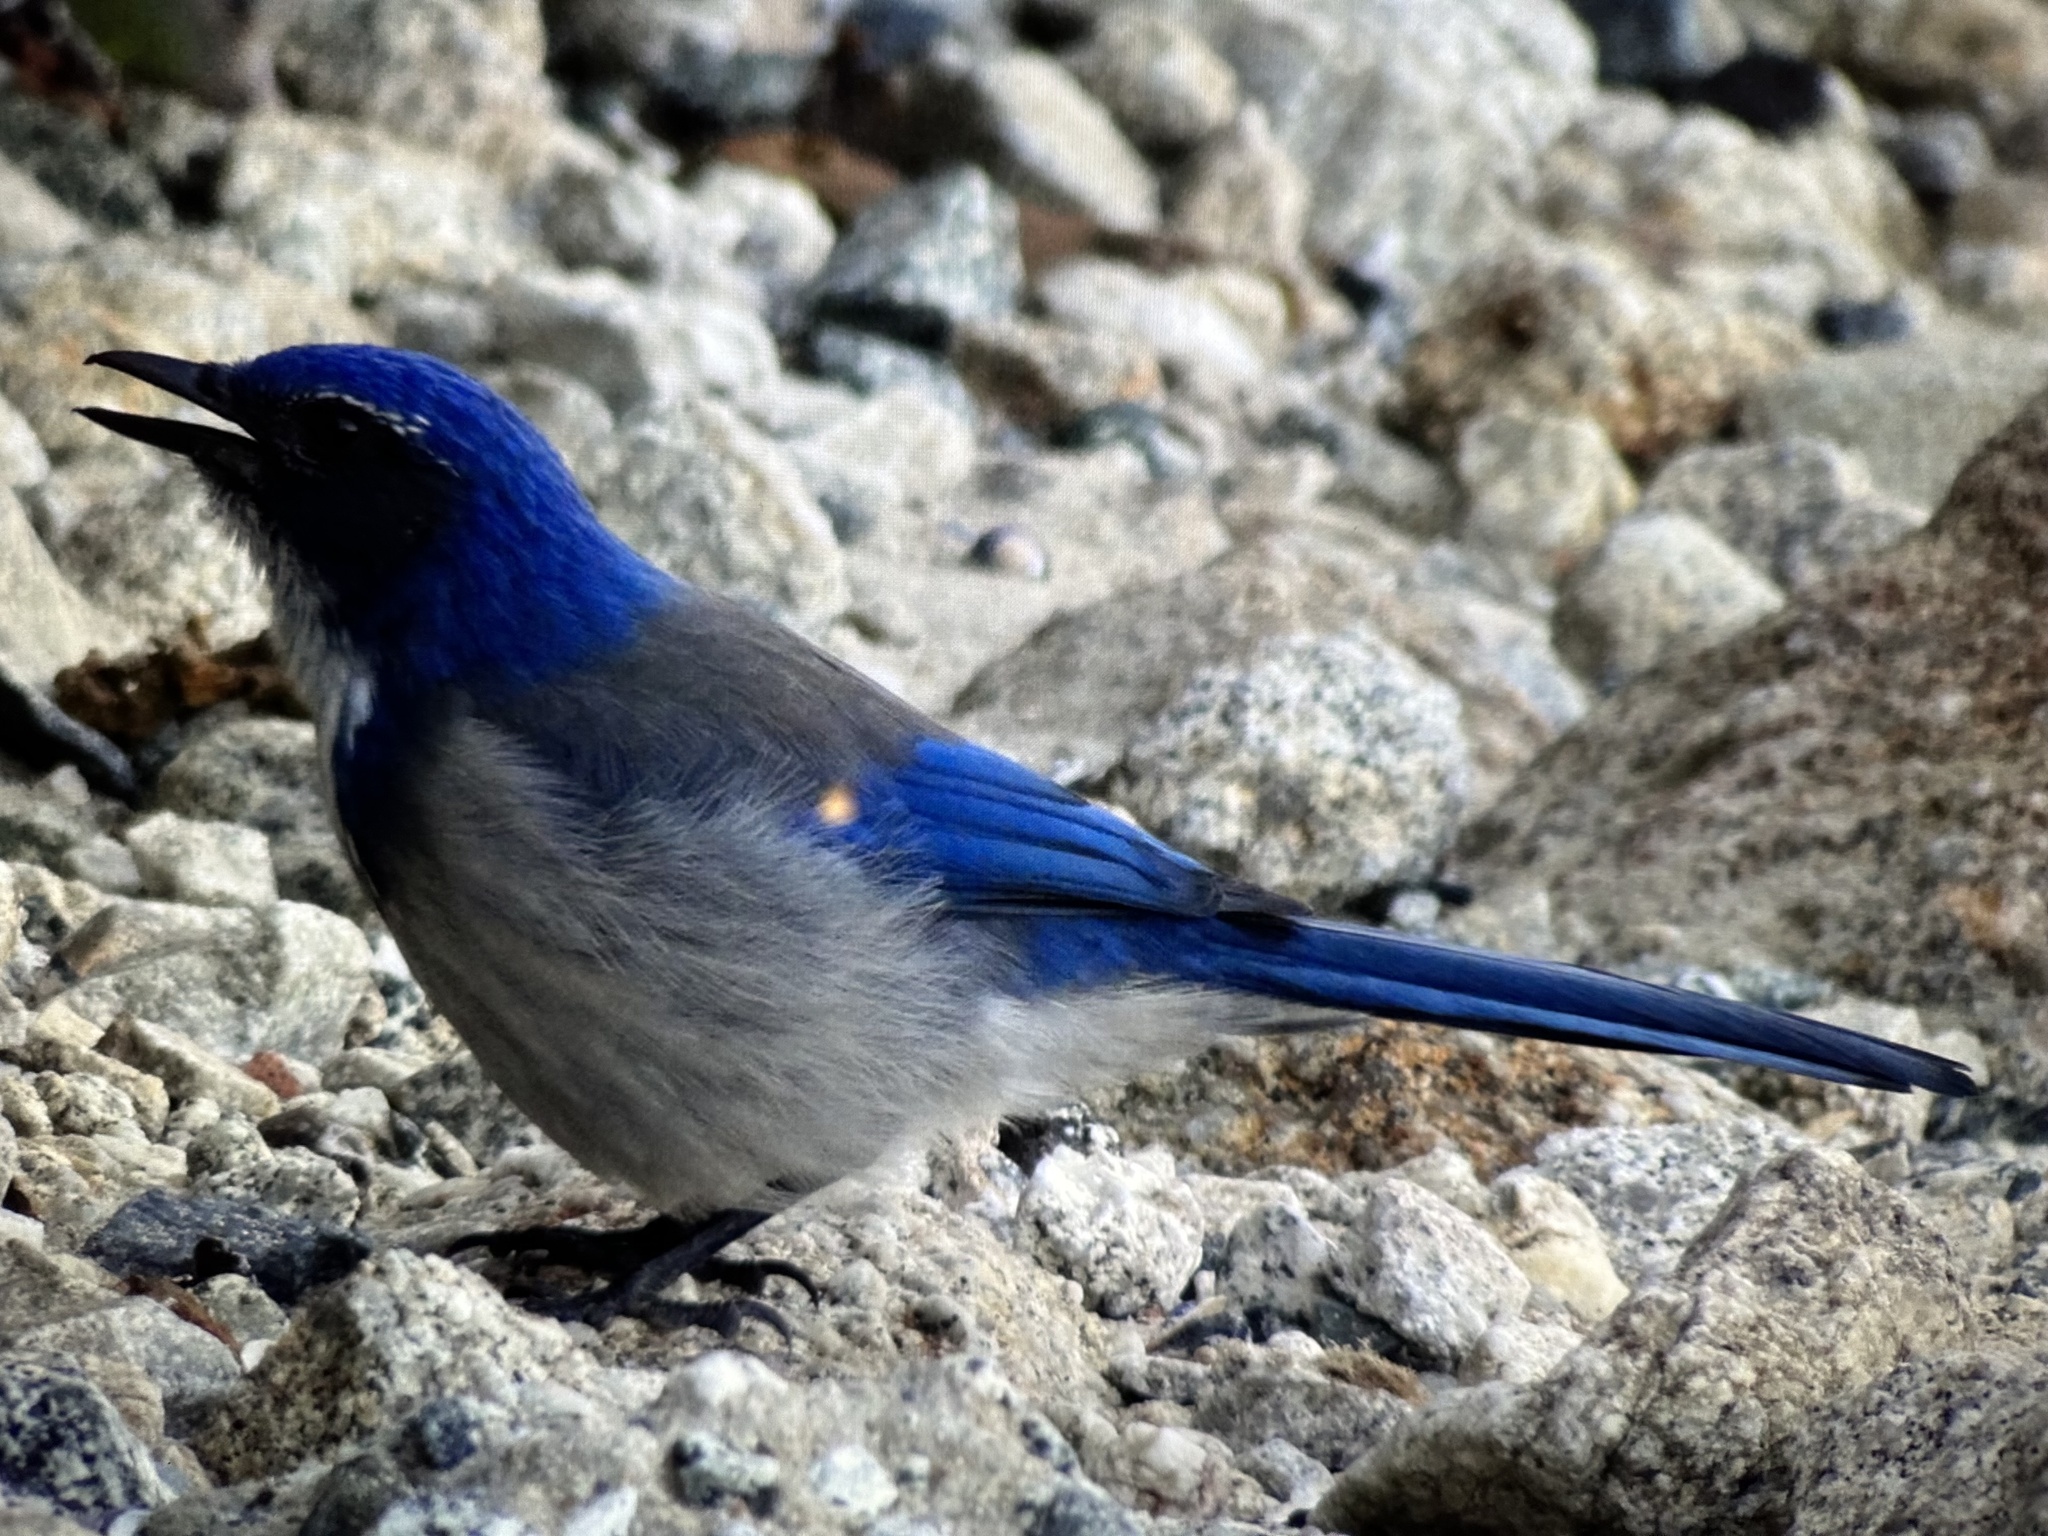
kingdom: Animalia
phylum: Chordata
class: Aves
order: Passeriformes
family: Corvidae
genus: Aphelocoma
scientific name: Aphelocoma californica
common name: California scrub-jay
